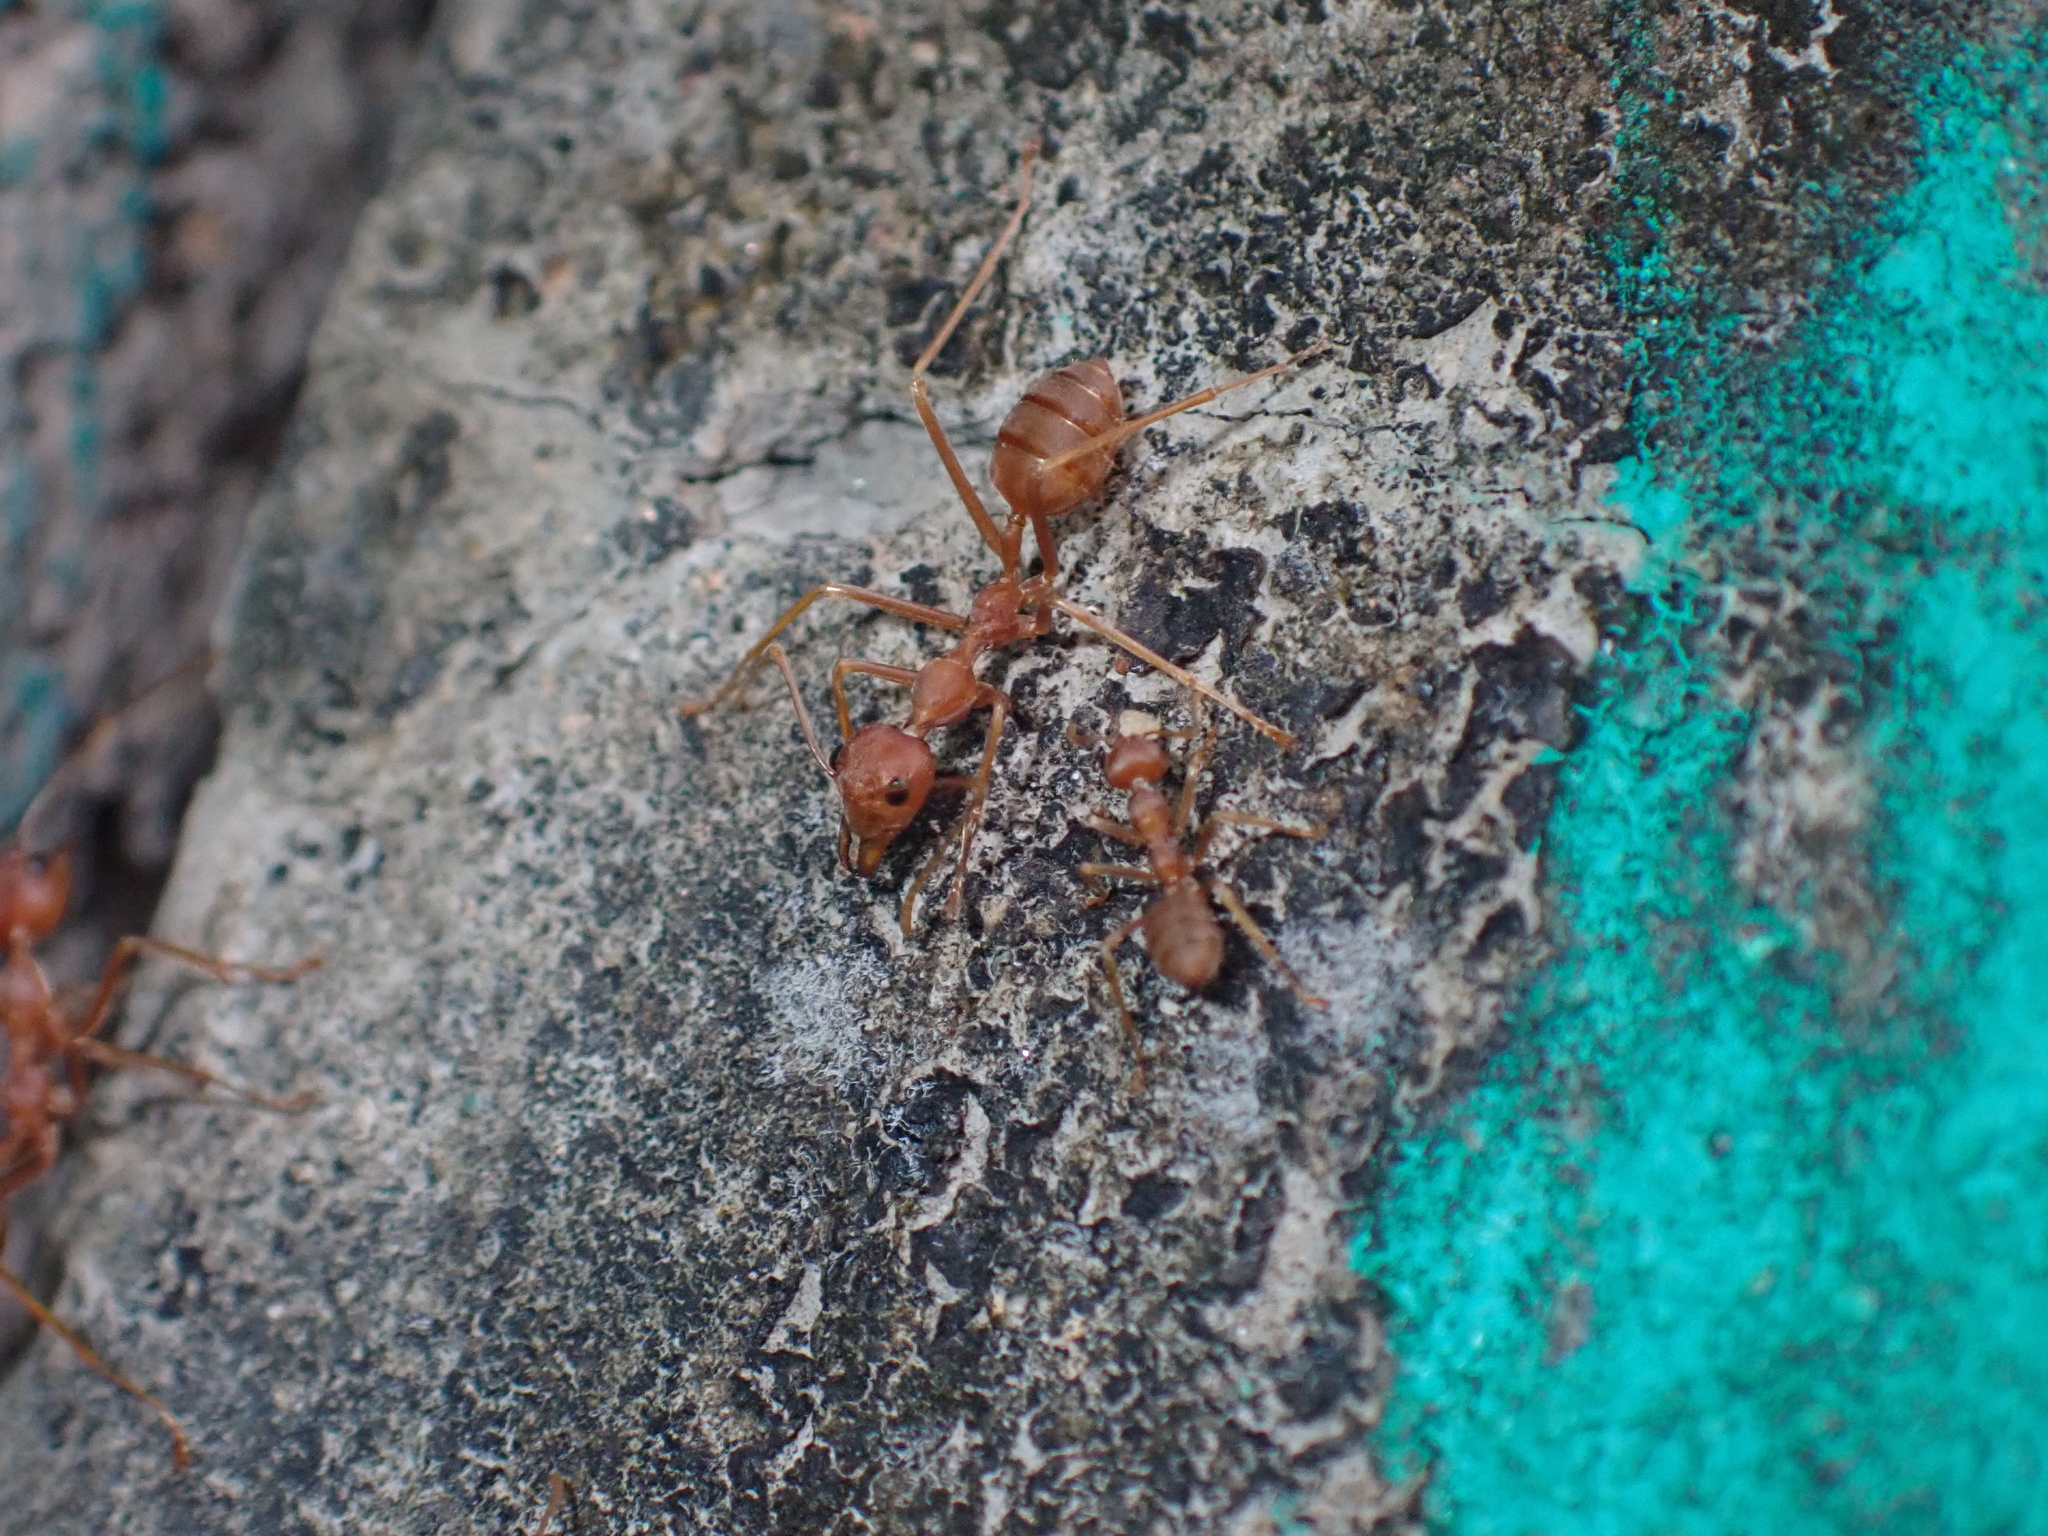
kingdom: Animalia
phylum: Arthropoda
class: Insecta
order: Hymenoptera
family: Formicidae
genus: Oecophylla
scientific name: Oecophylla smaragdina
